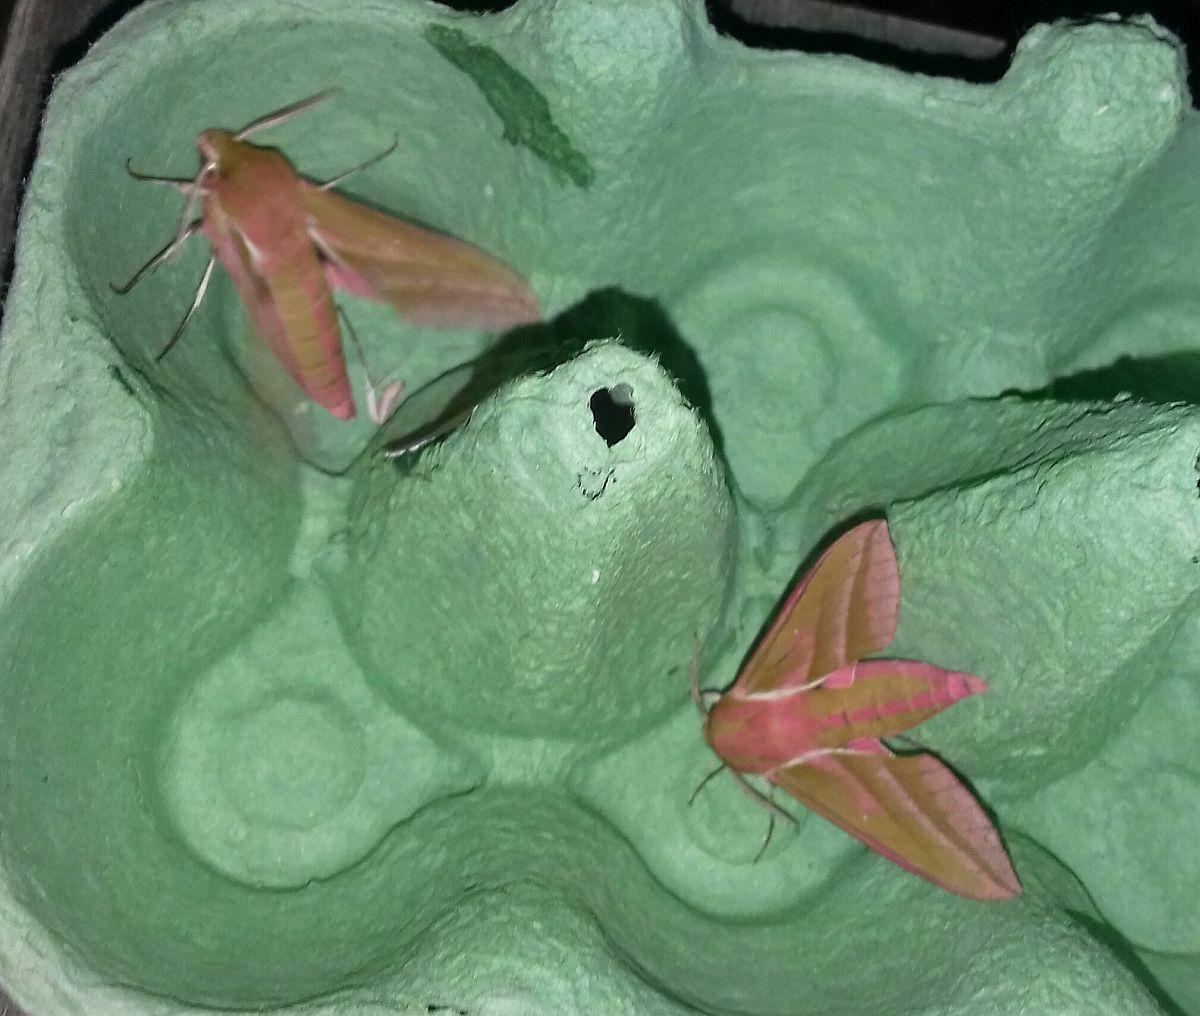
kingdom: Animalia
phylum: Arthropoda
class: Insecta
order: Lepidoptera
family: Sphingidae
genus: Deilephila
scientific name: Deilephila elpenor
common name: Elephant hawk-moth
